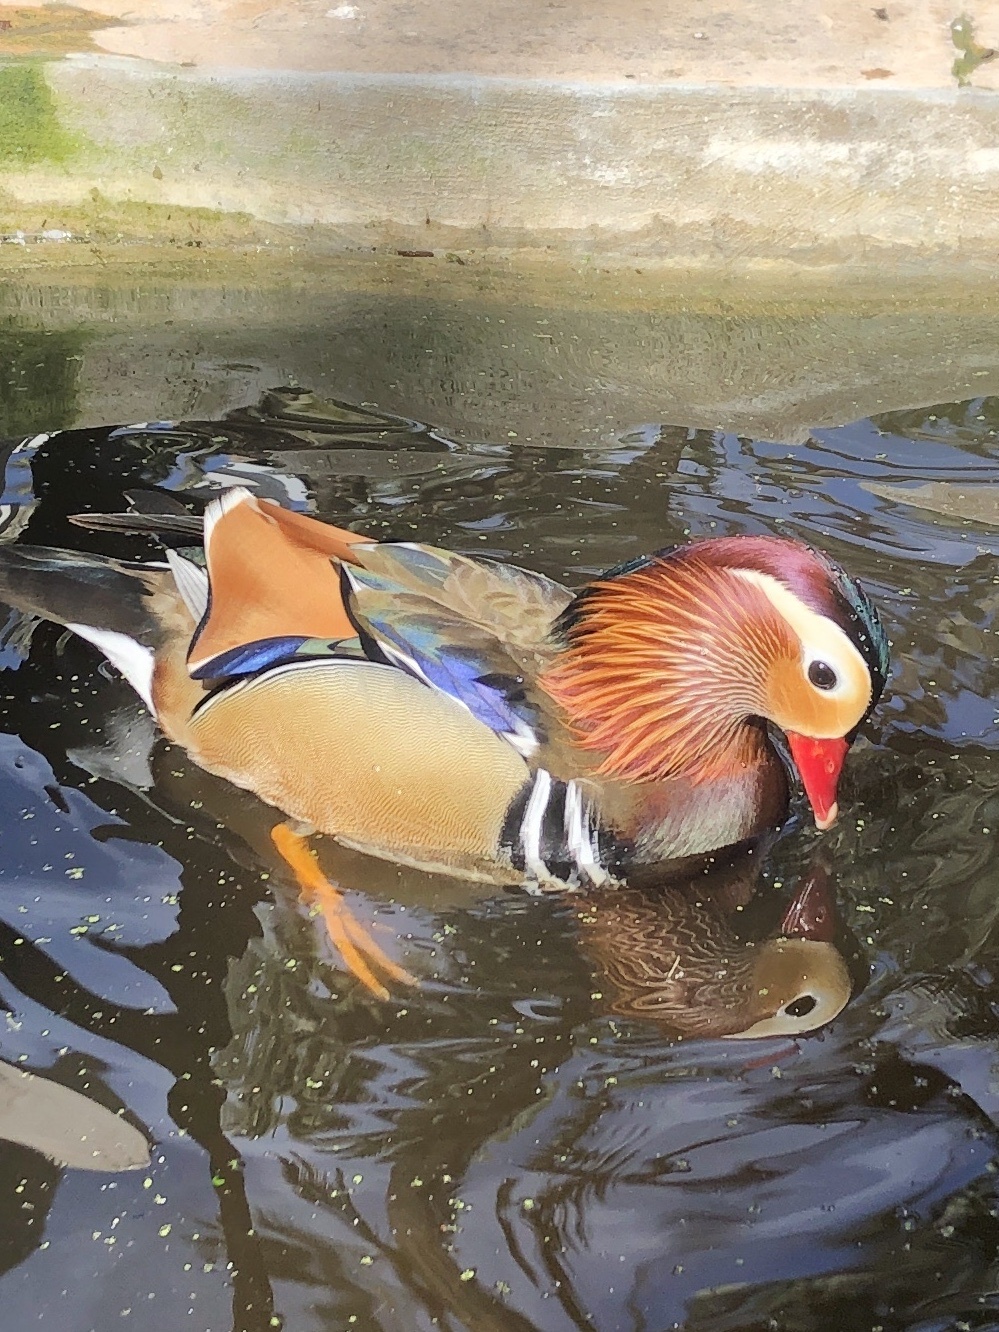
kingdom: Animalia
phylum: Chordata
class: Aves
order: Anseriformes
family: Anatidae
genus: Aix
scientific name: Aix galericulata
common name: Mandarin duck
